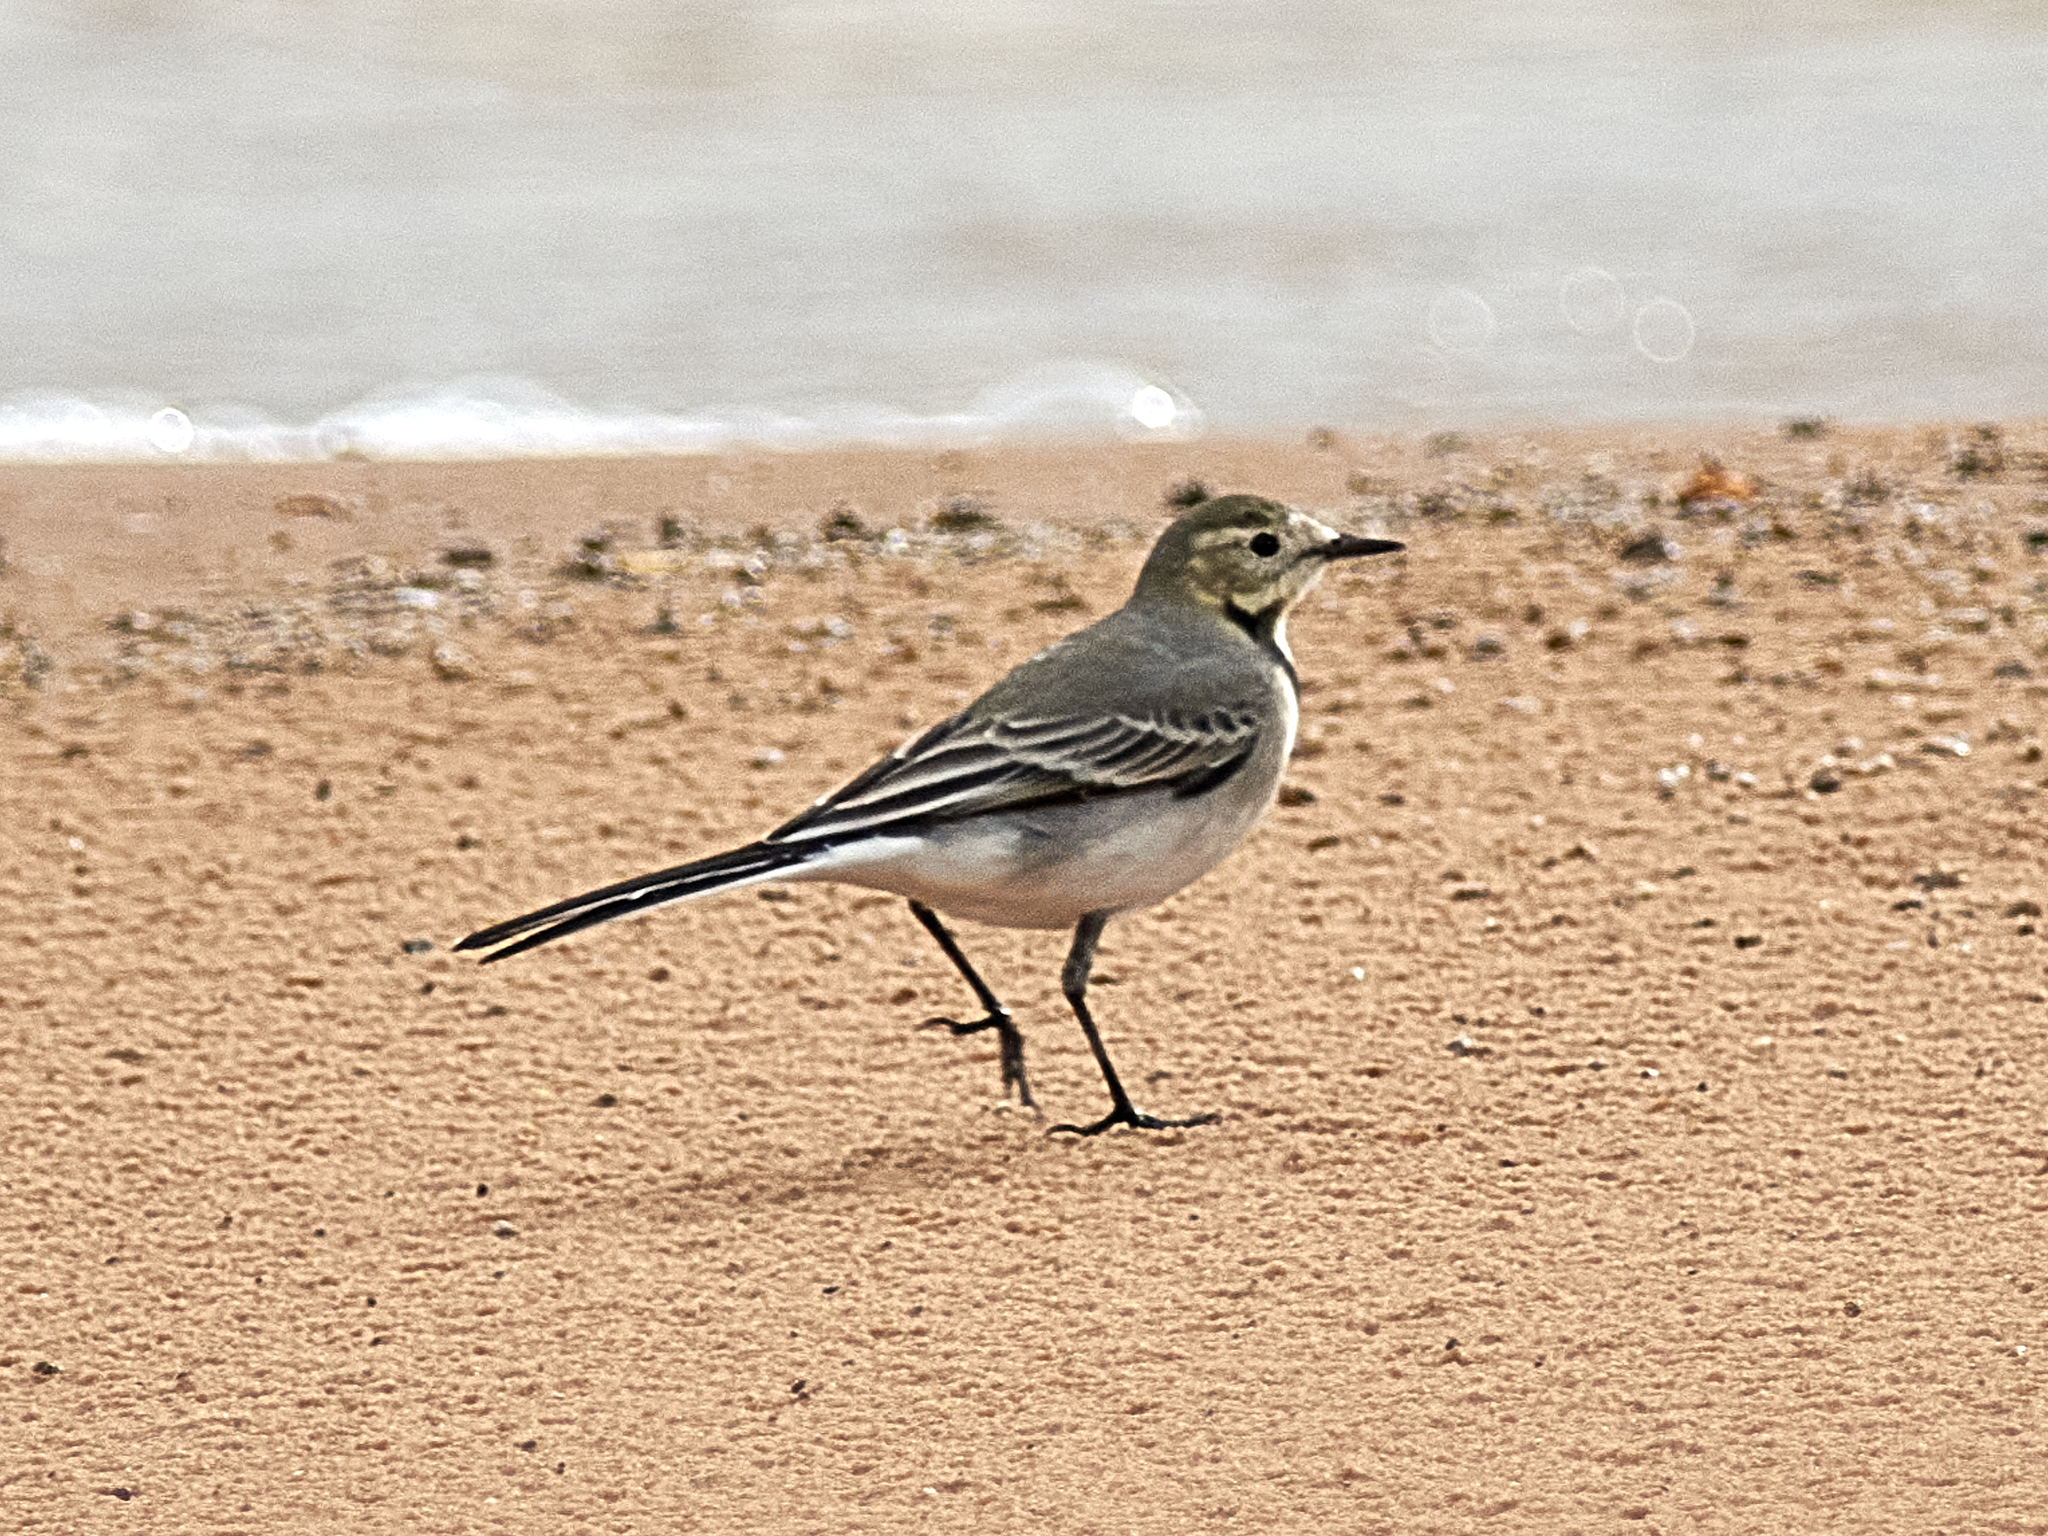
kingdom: Animalia
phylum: Chordata
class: Aves
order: Passeriformes
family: Motacillidae
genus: Motacilla
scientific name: Motacilla alba
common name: White wagtail
